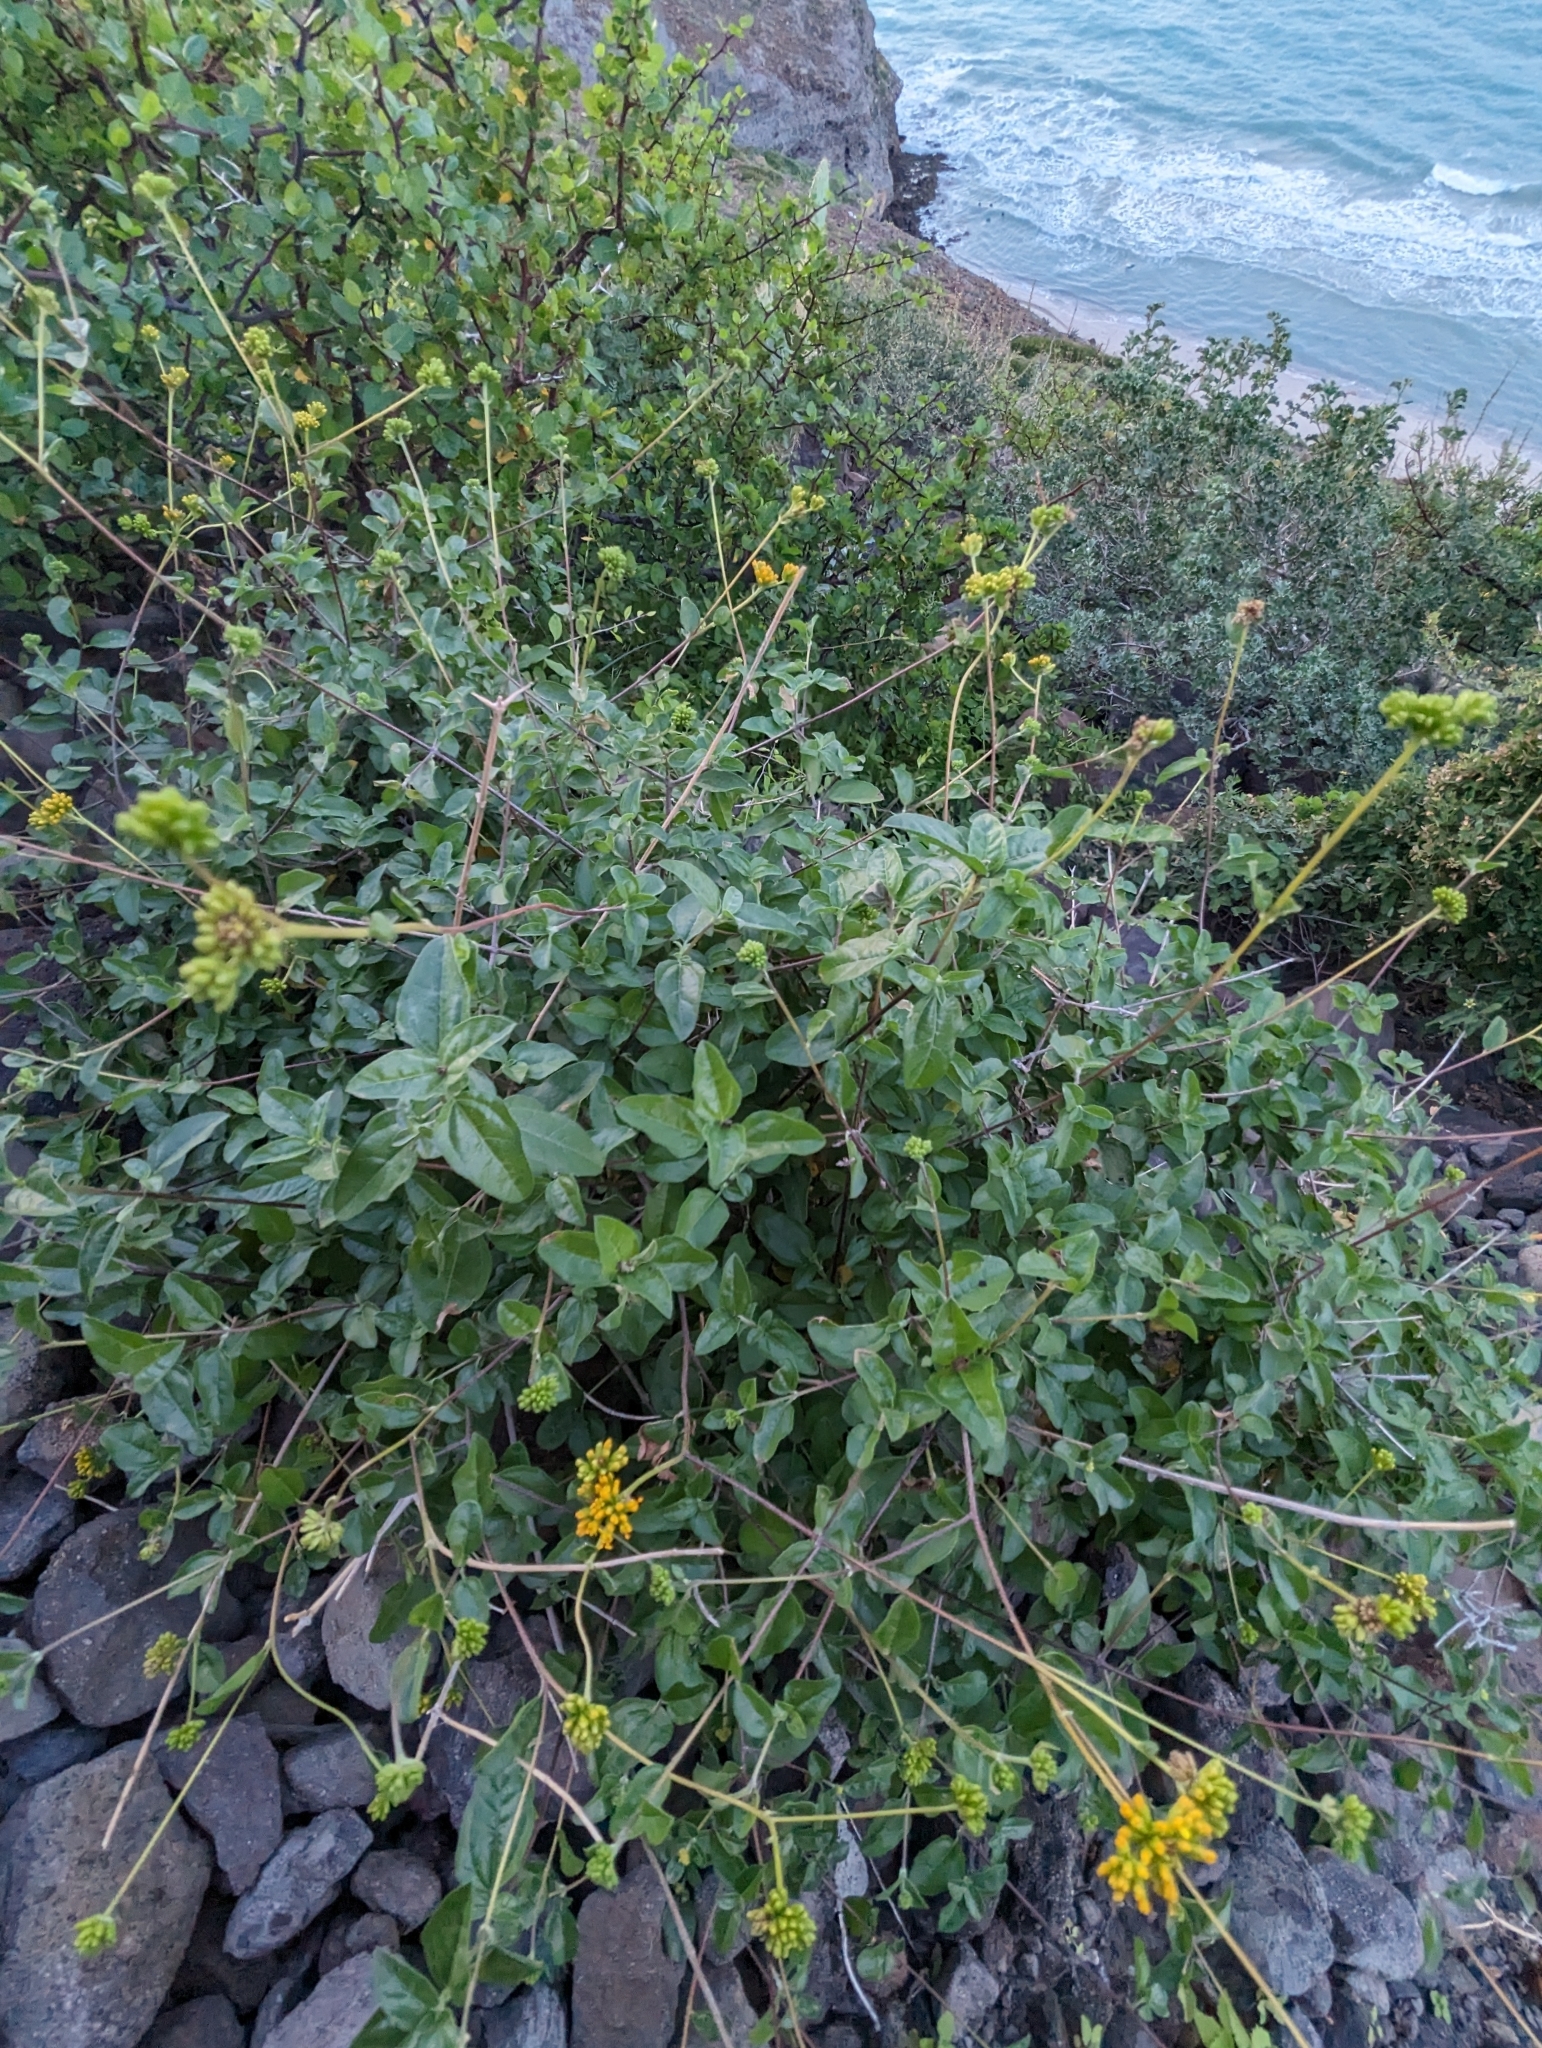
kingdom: Plantae
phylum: Tracheophyta
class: Magnoliopsida
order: Asterales
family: Asteraceae
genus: Aldama
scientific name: Aldama brandegeei
